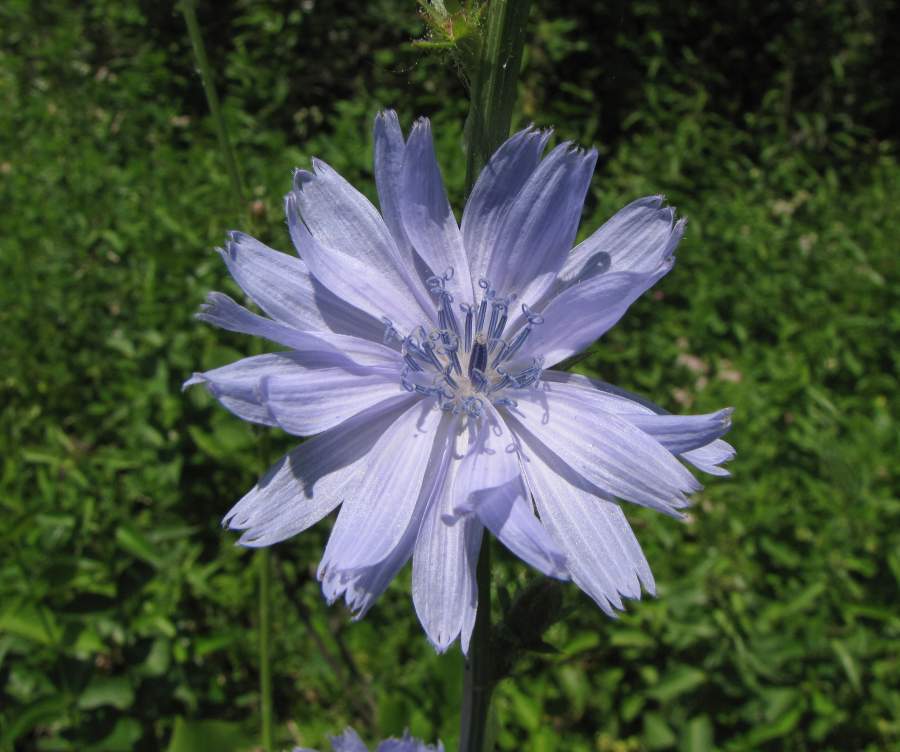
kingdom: Plantae
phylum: Tracheophyta
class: Magnoliopsida
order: Asterales
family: Asteraceae
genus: Cichorium
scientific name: Cichorium intybus
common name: Chicory
